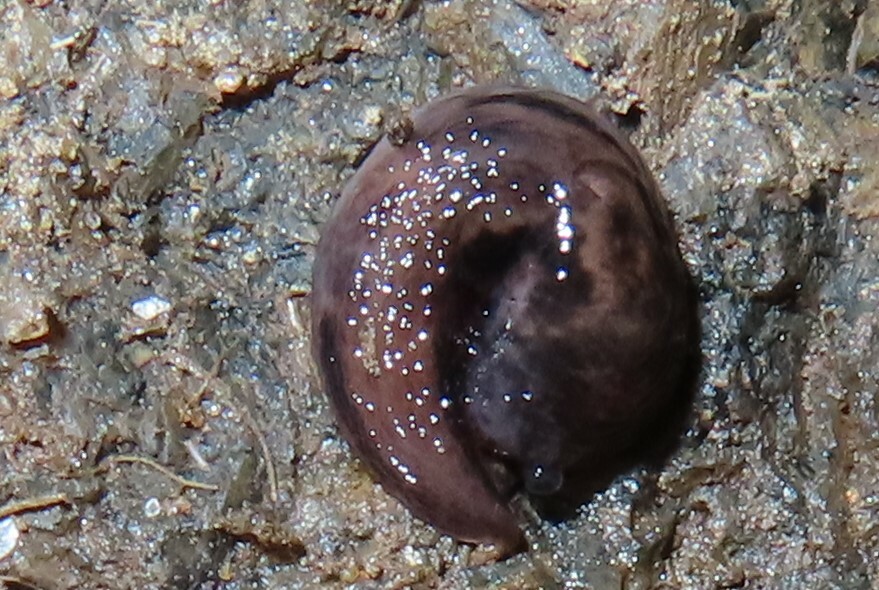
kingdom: Animalia
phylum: Mollusca
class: Gastropoda
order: Stylommatophora
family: Limacidae
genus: Limax
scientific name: Limax maximus
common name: Great grey slug
